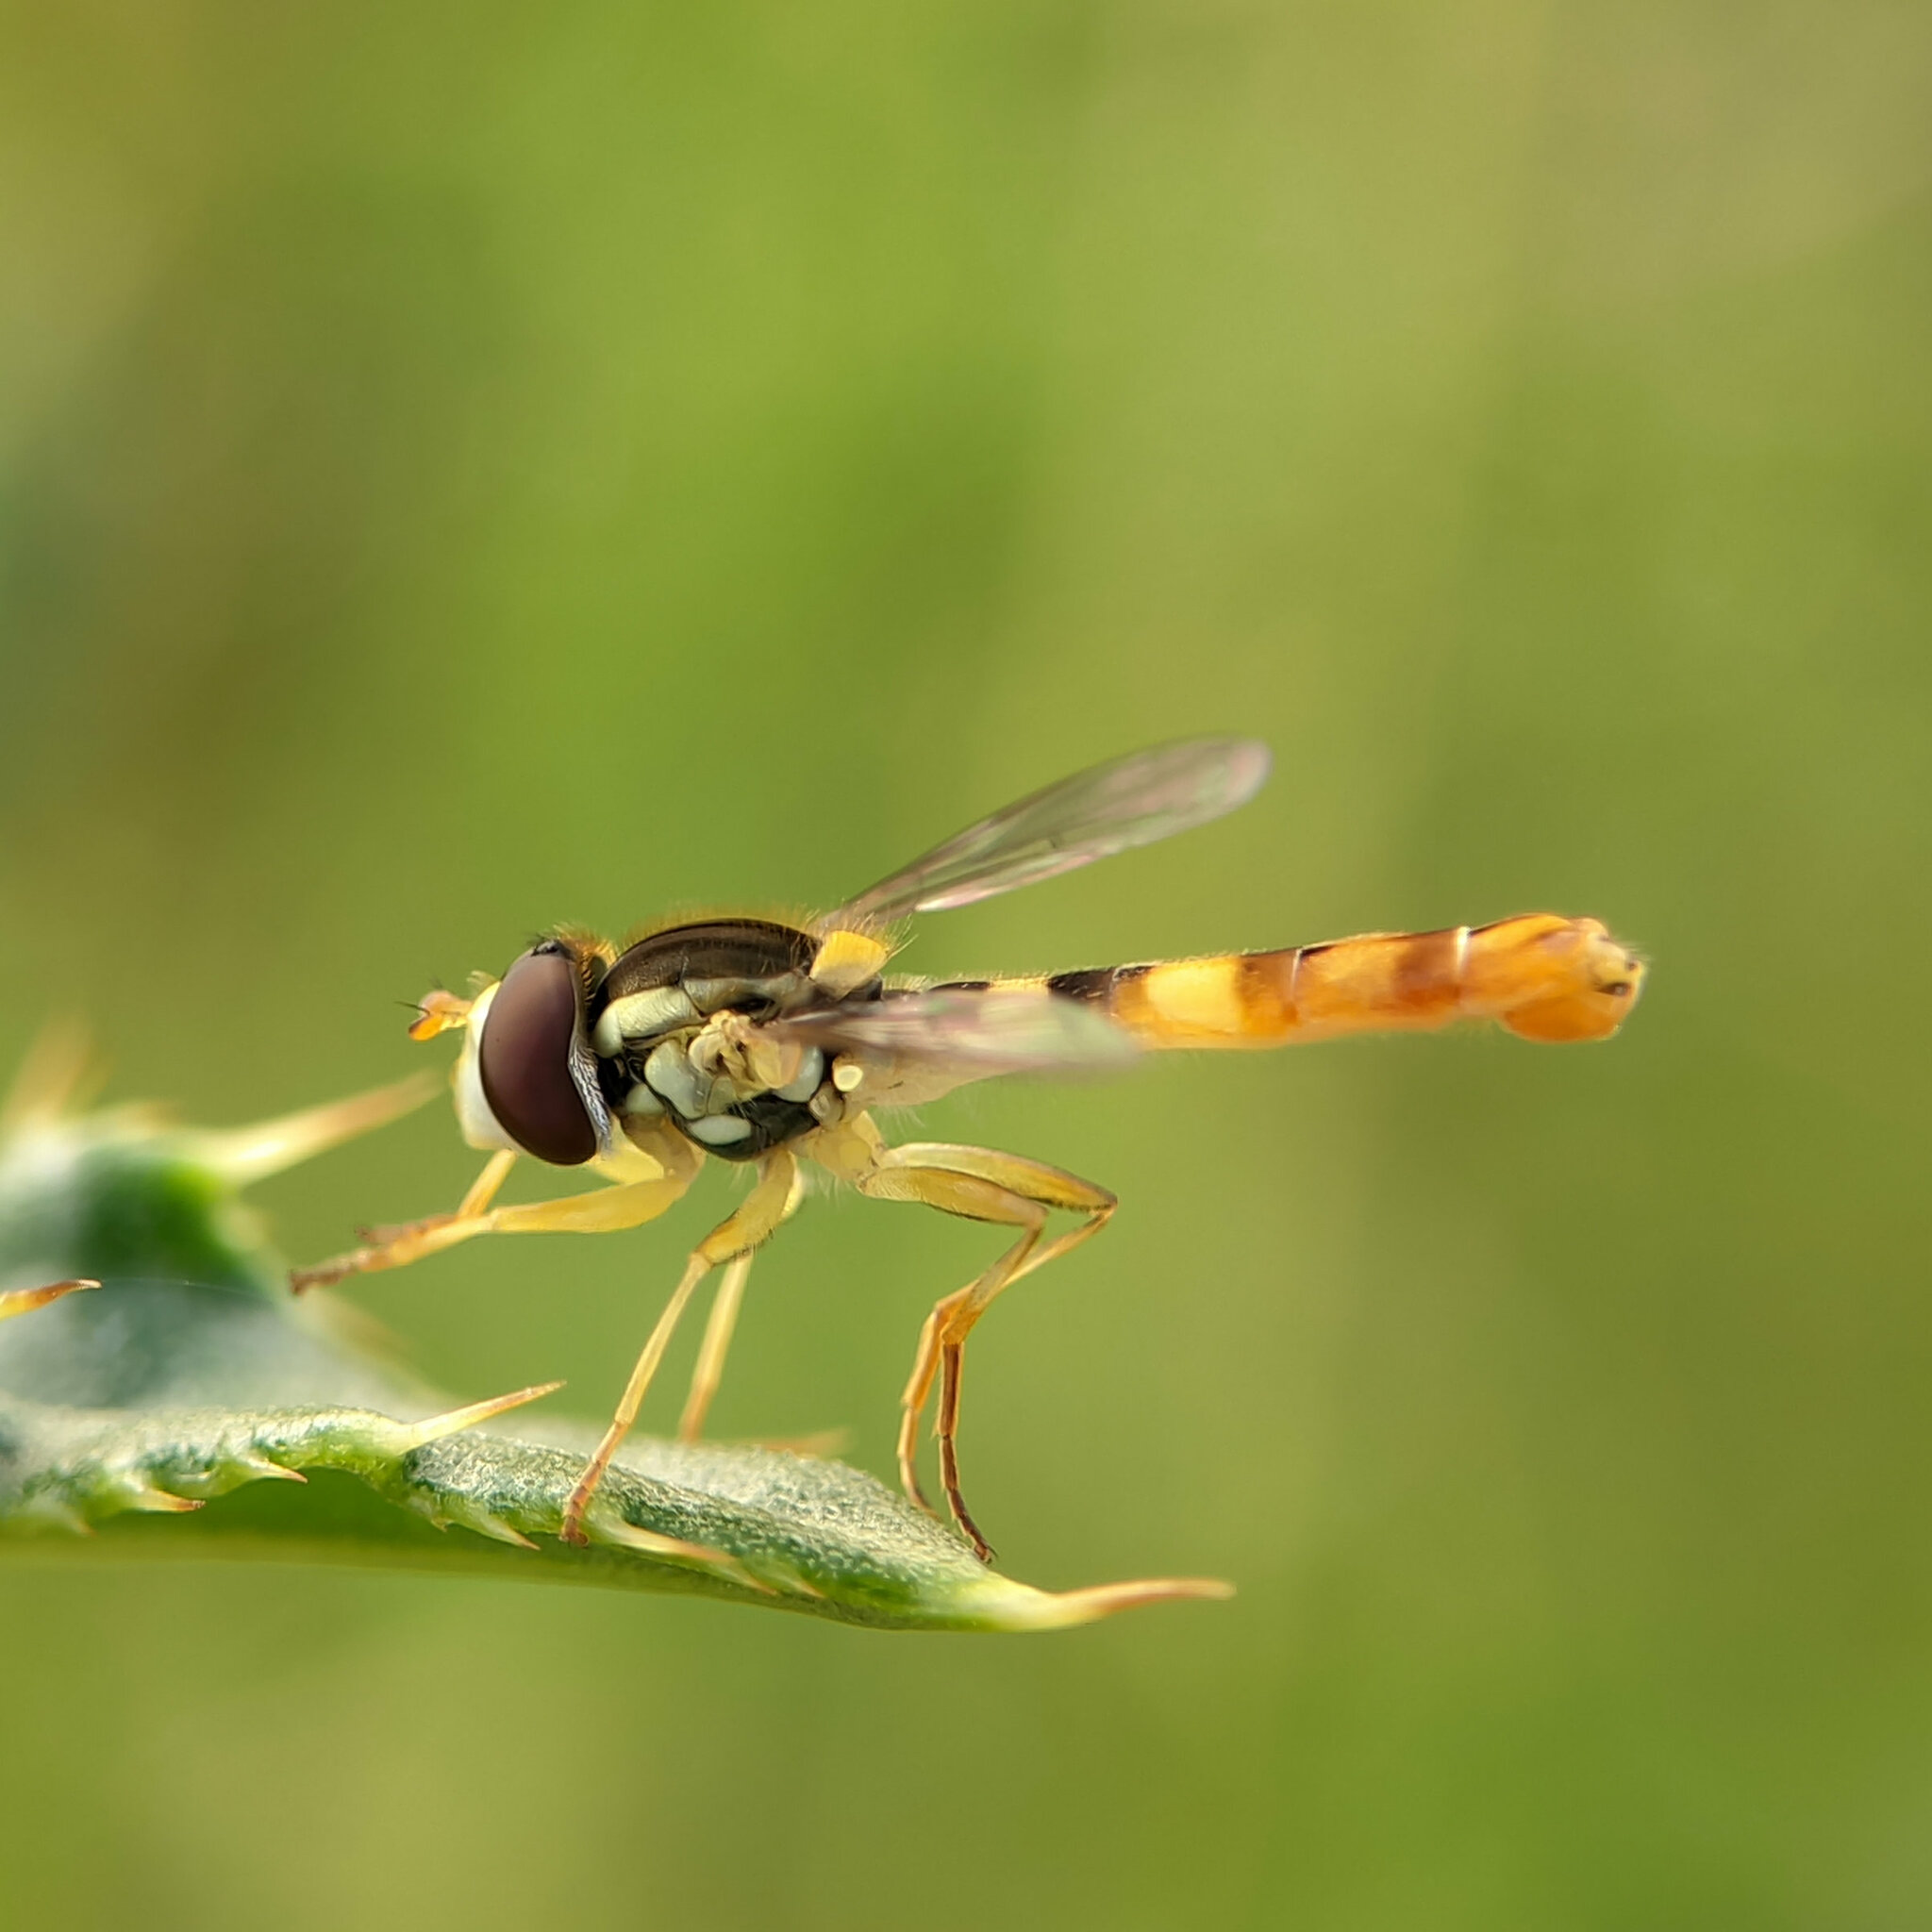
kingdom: Animalia
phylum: Arthropoda
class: Insecta
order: Diptera
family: Syrphidae
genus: Sphaerophoria
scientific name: Sphaerophoria scripta
